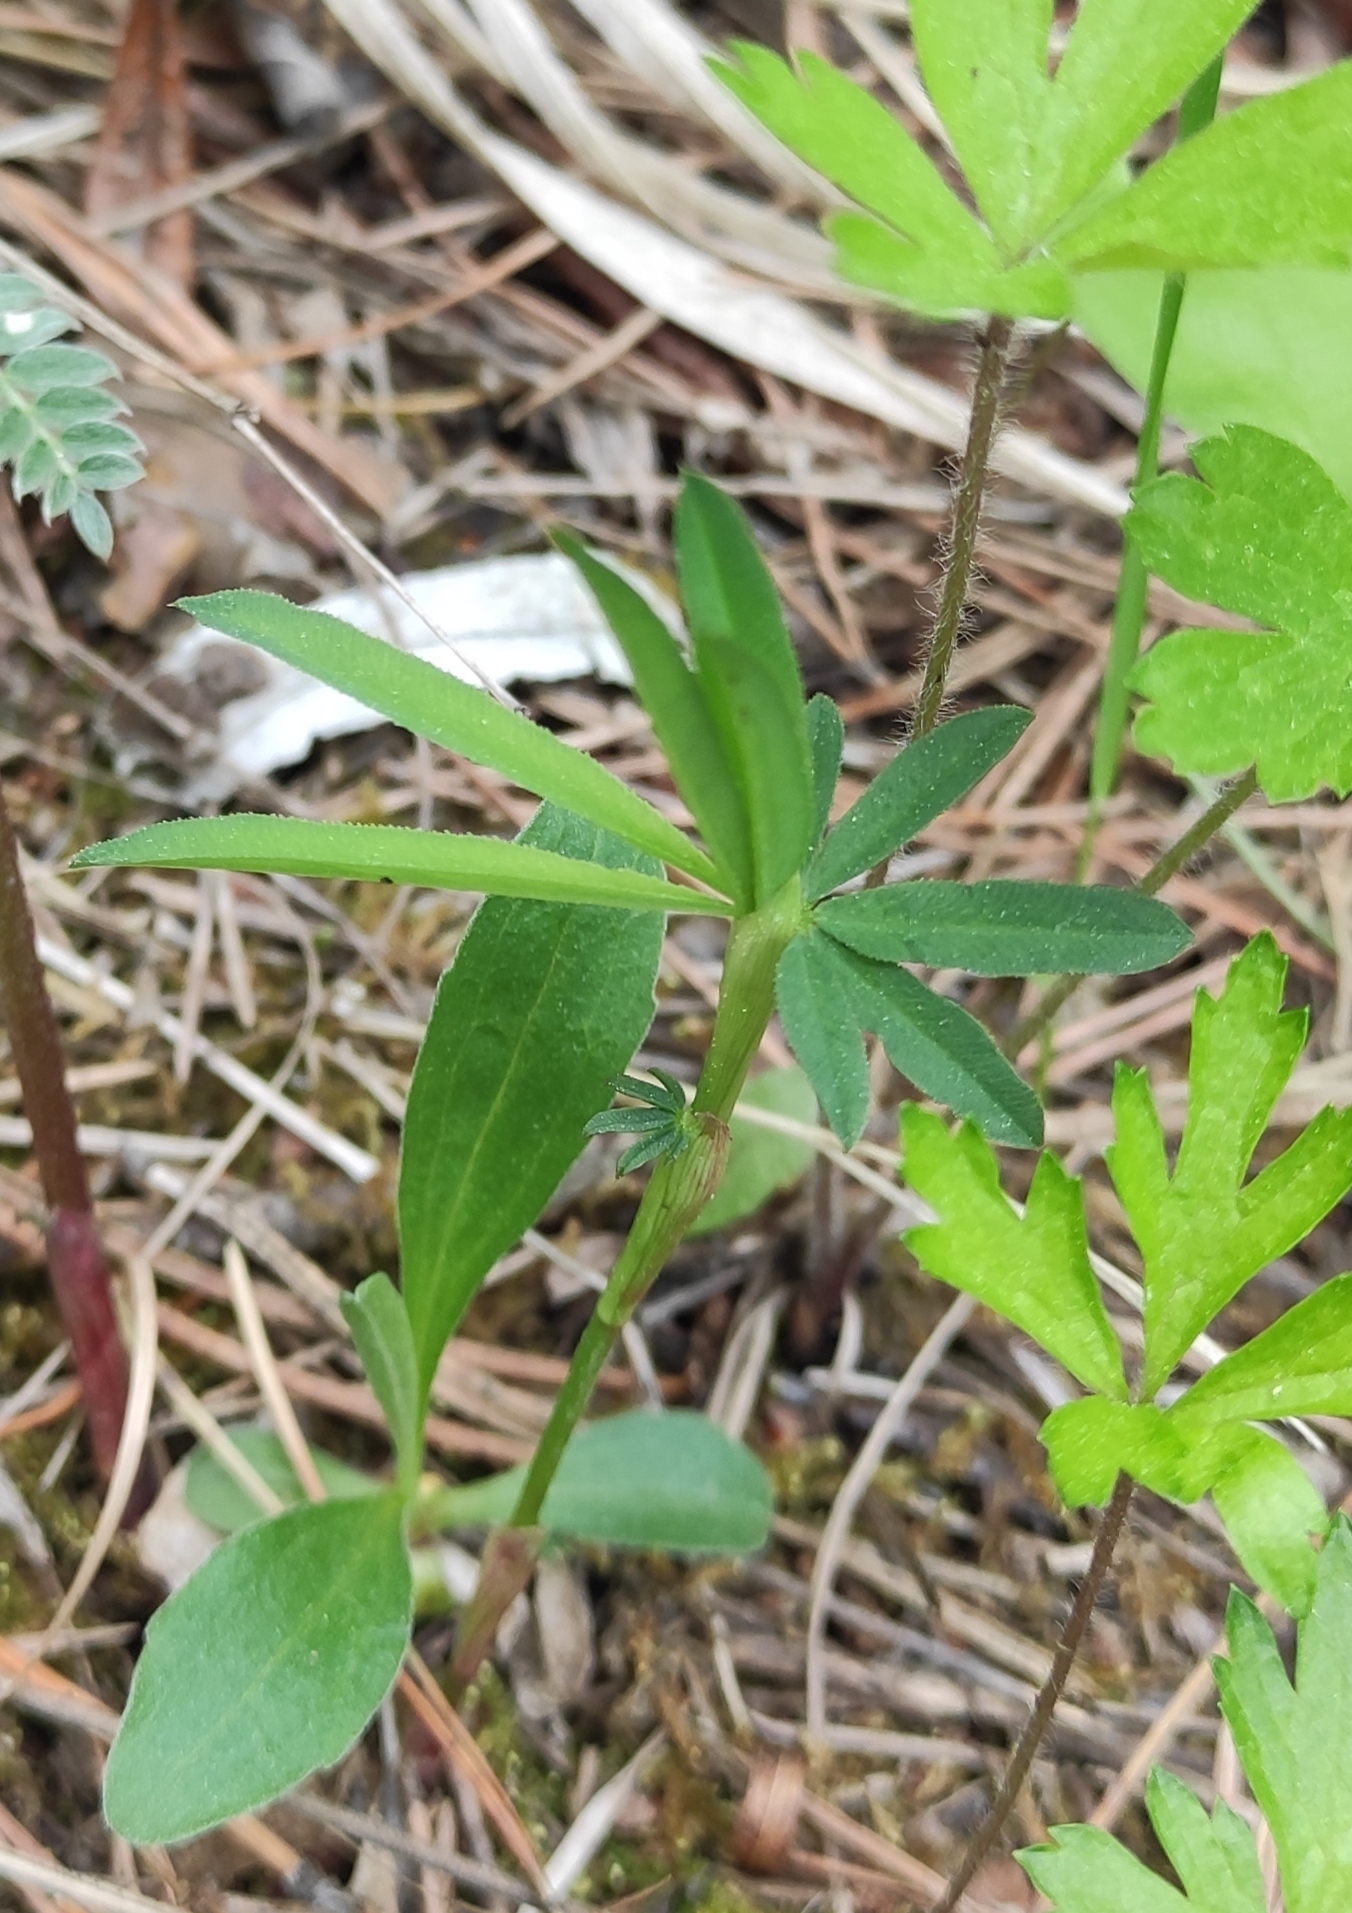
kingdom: Plantae
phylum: Tracheophyta
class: Magnoliopsida
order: Fabales
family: Fabaceae
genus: Trifolium
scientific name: Trifolium lupinaster
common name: Lupine clover
